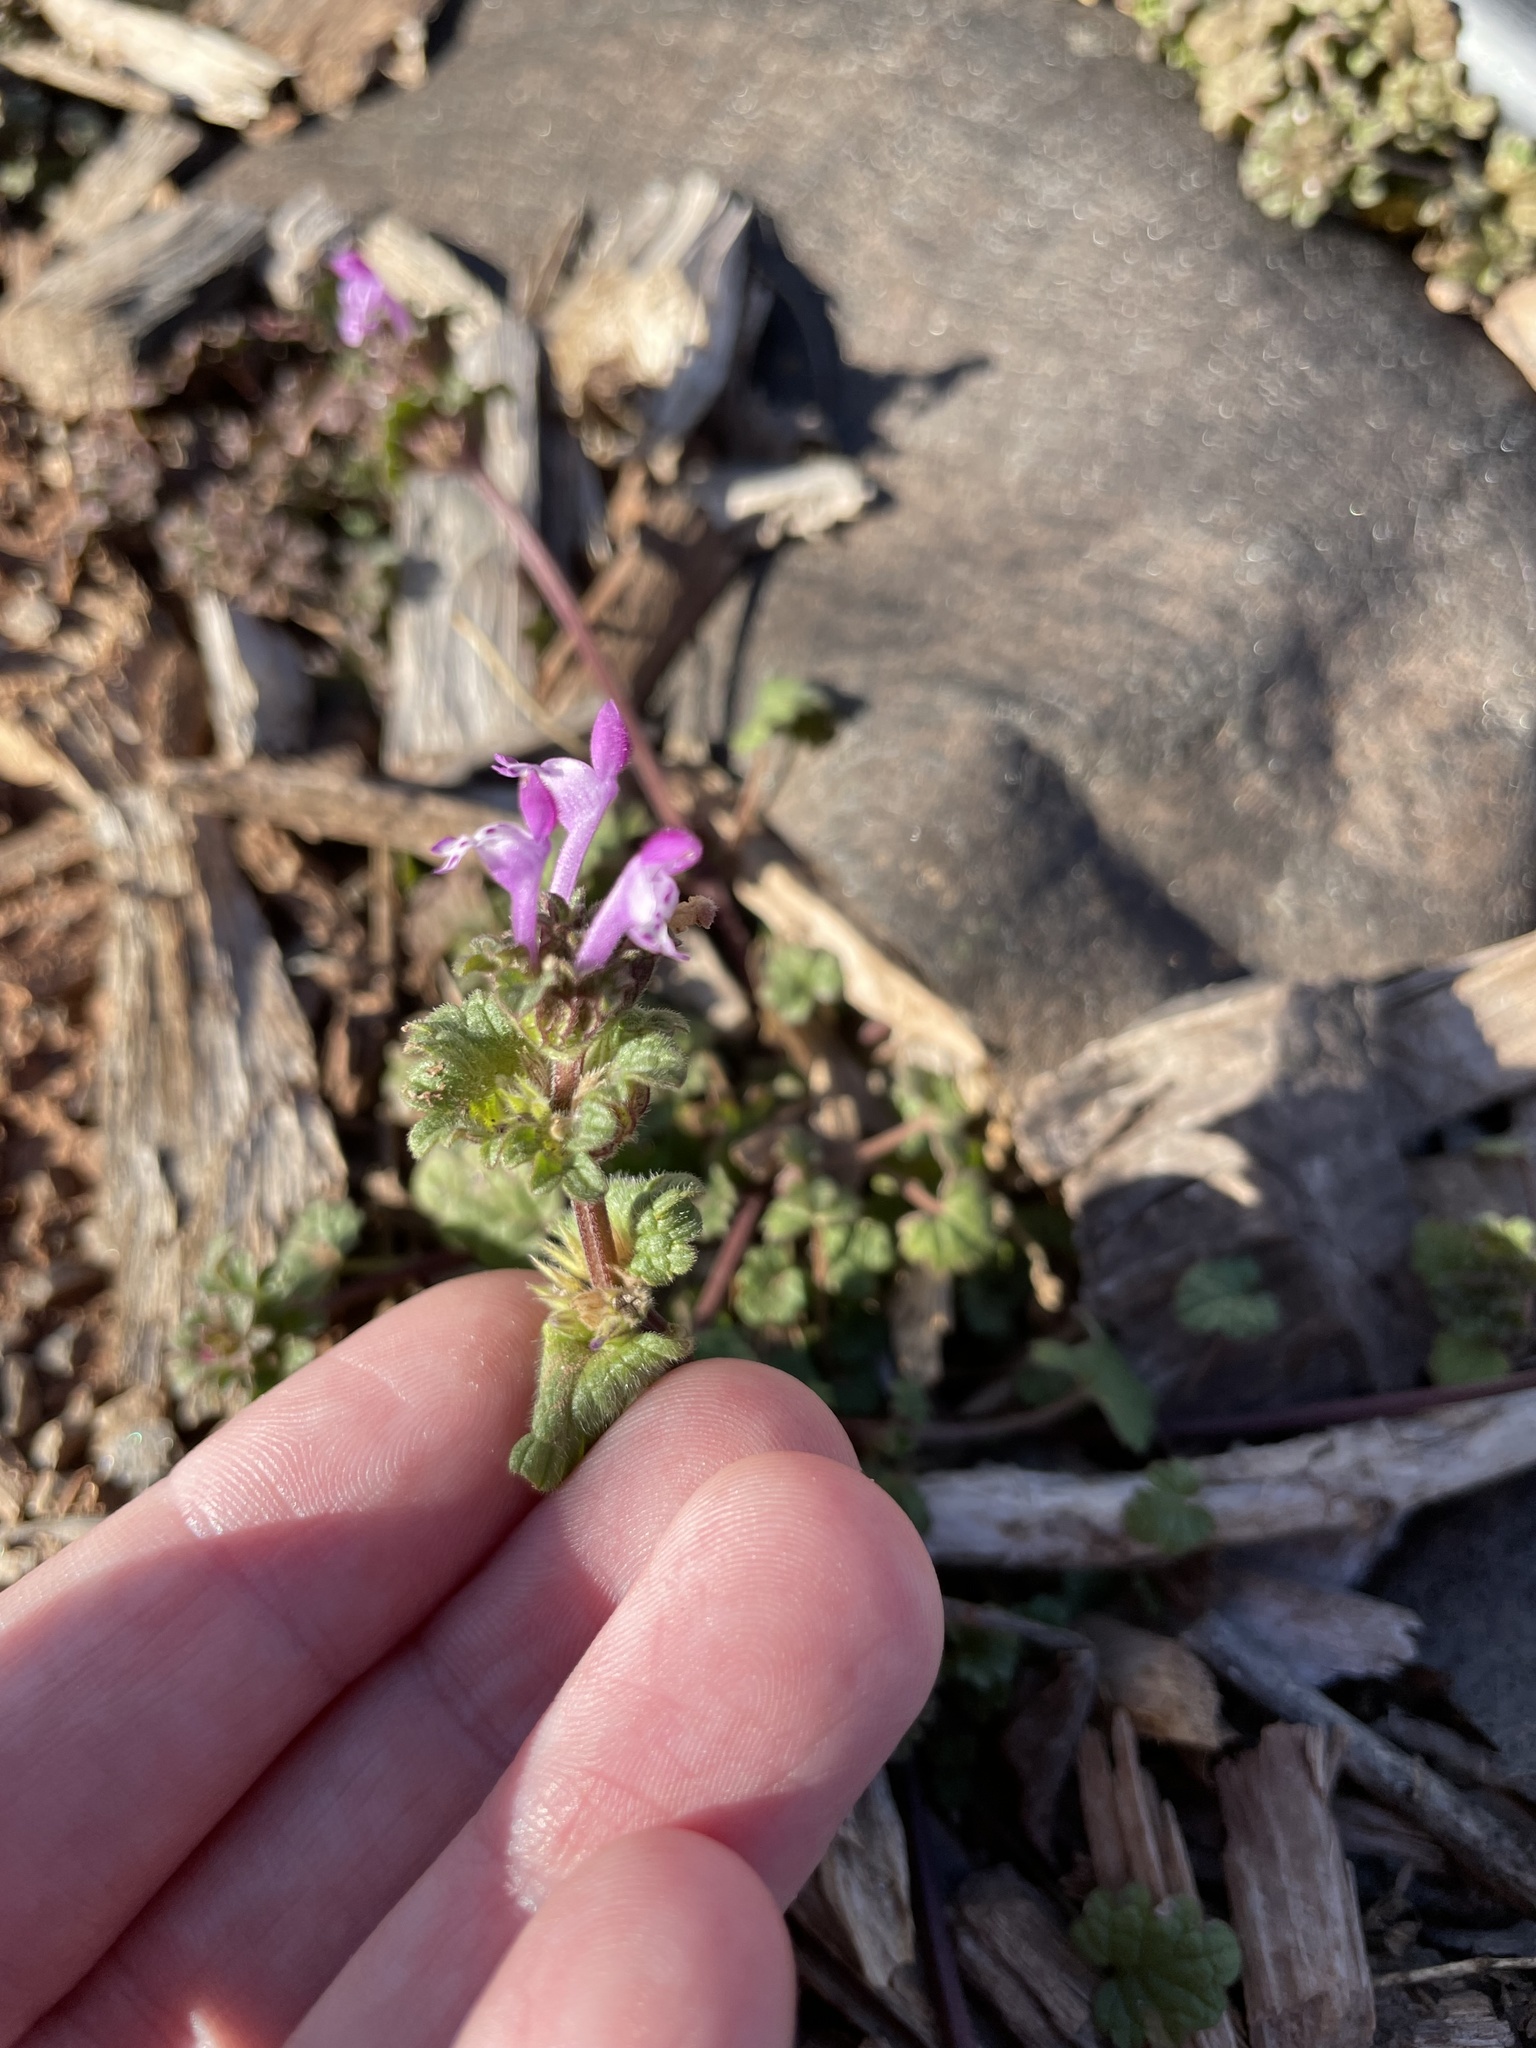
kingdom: Plantae
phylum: Tracheophyta
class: Magnoliopsida
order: Lamiales
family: Lamiaceae
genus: Lamium
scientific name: Lamium amplexicaule
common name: Henbit dead-nettle
